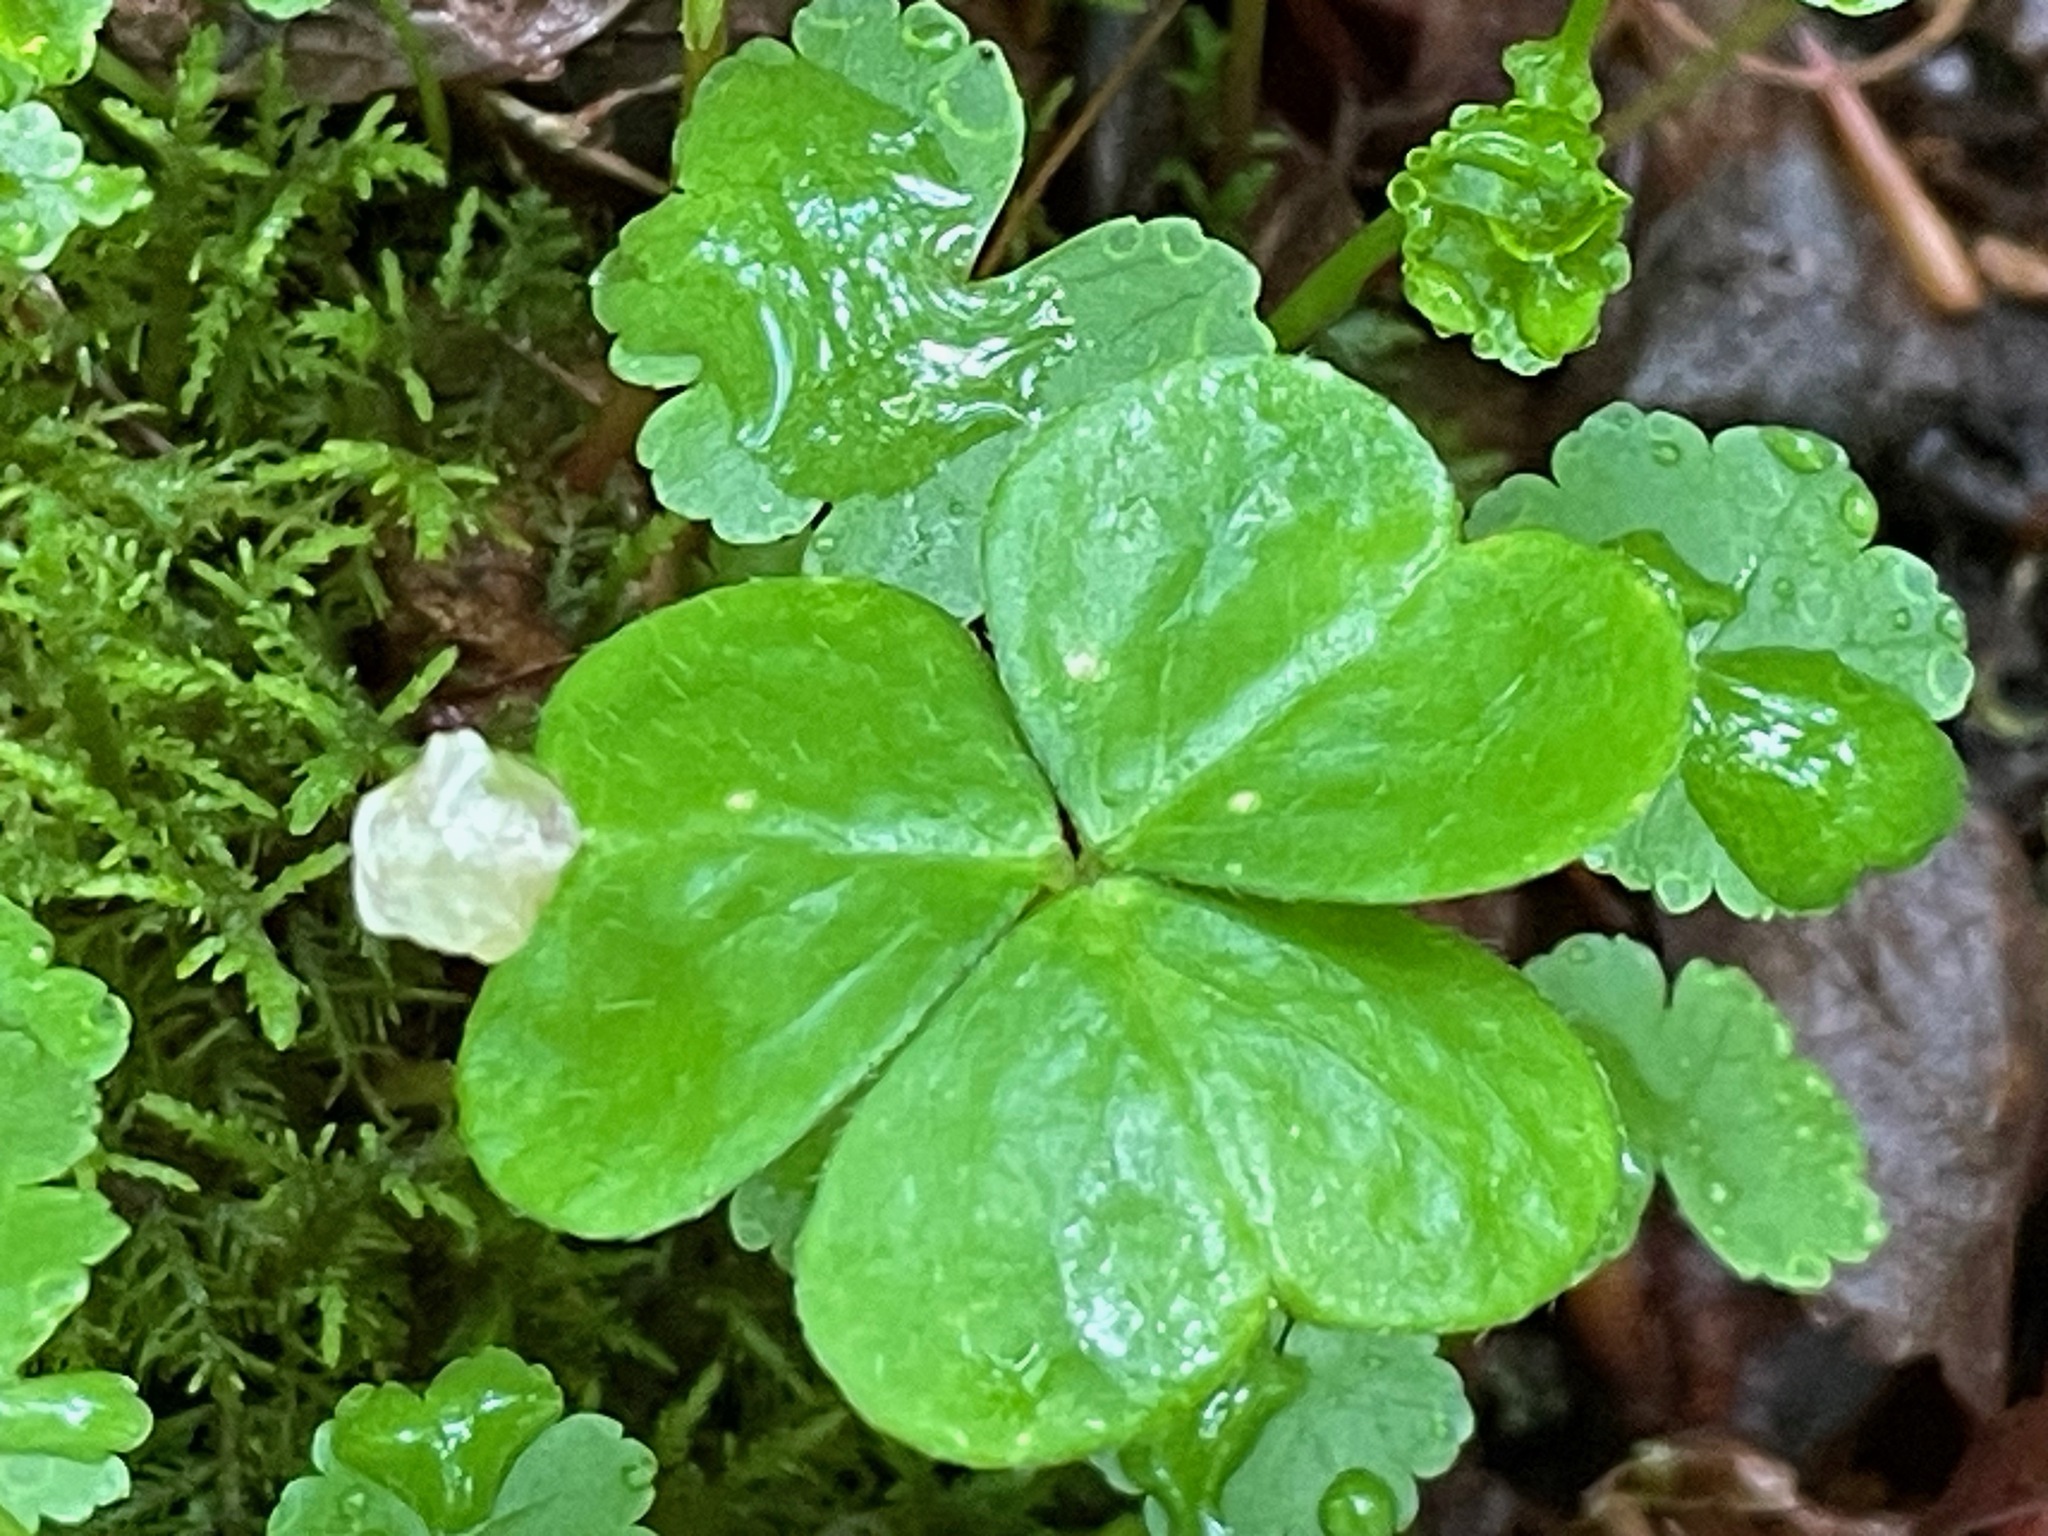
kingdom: Plantae
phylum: Tracheophyta
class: Magnoliopsida
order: Oxalidales
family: Oxalidaceae
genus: Oxalis
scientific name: Oxalis montana
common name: American wood-sorrel
